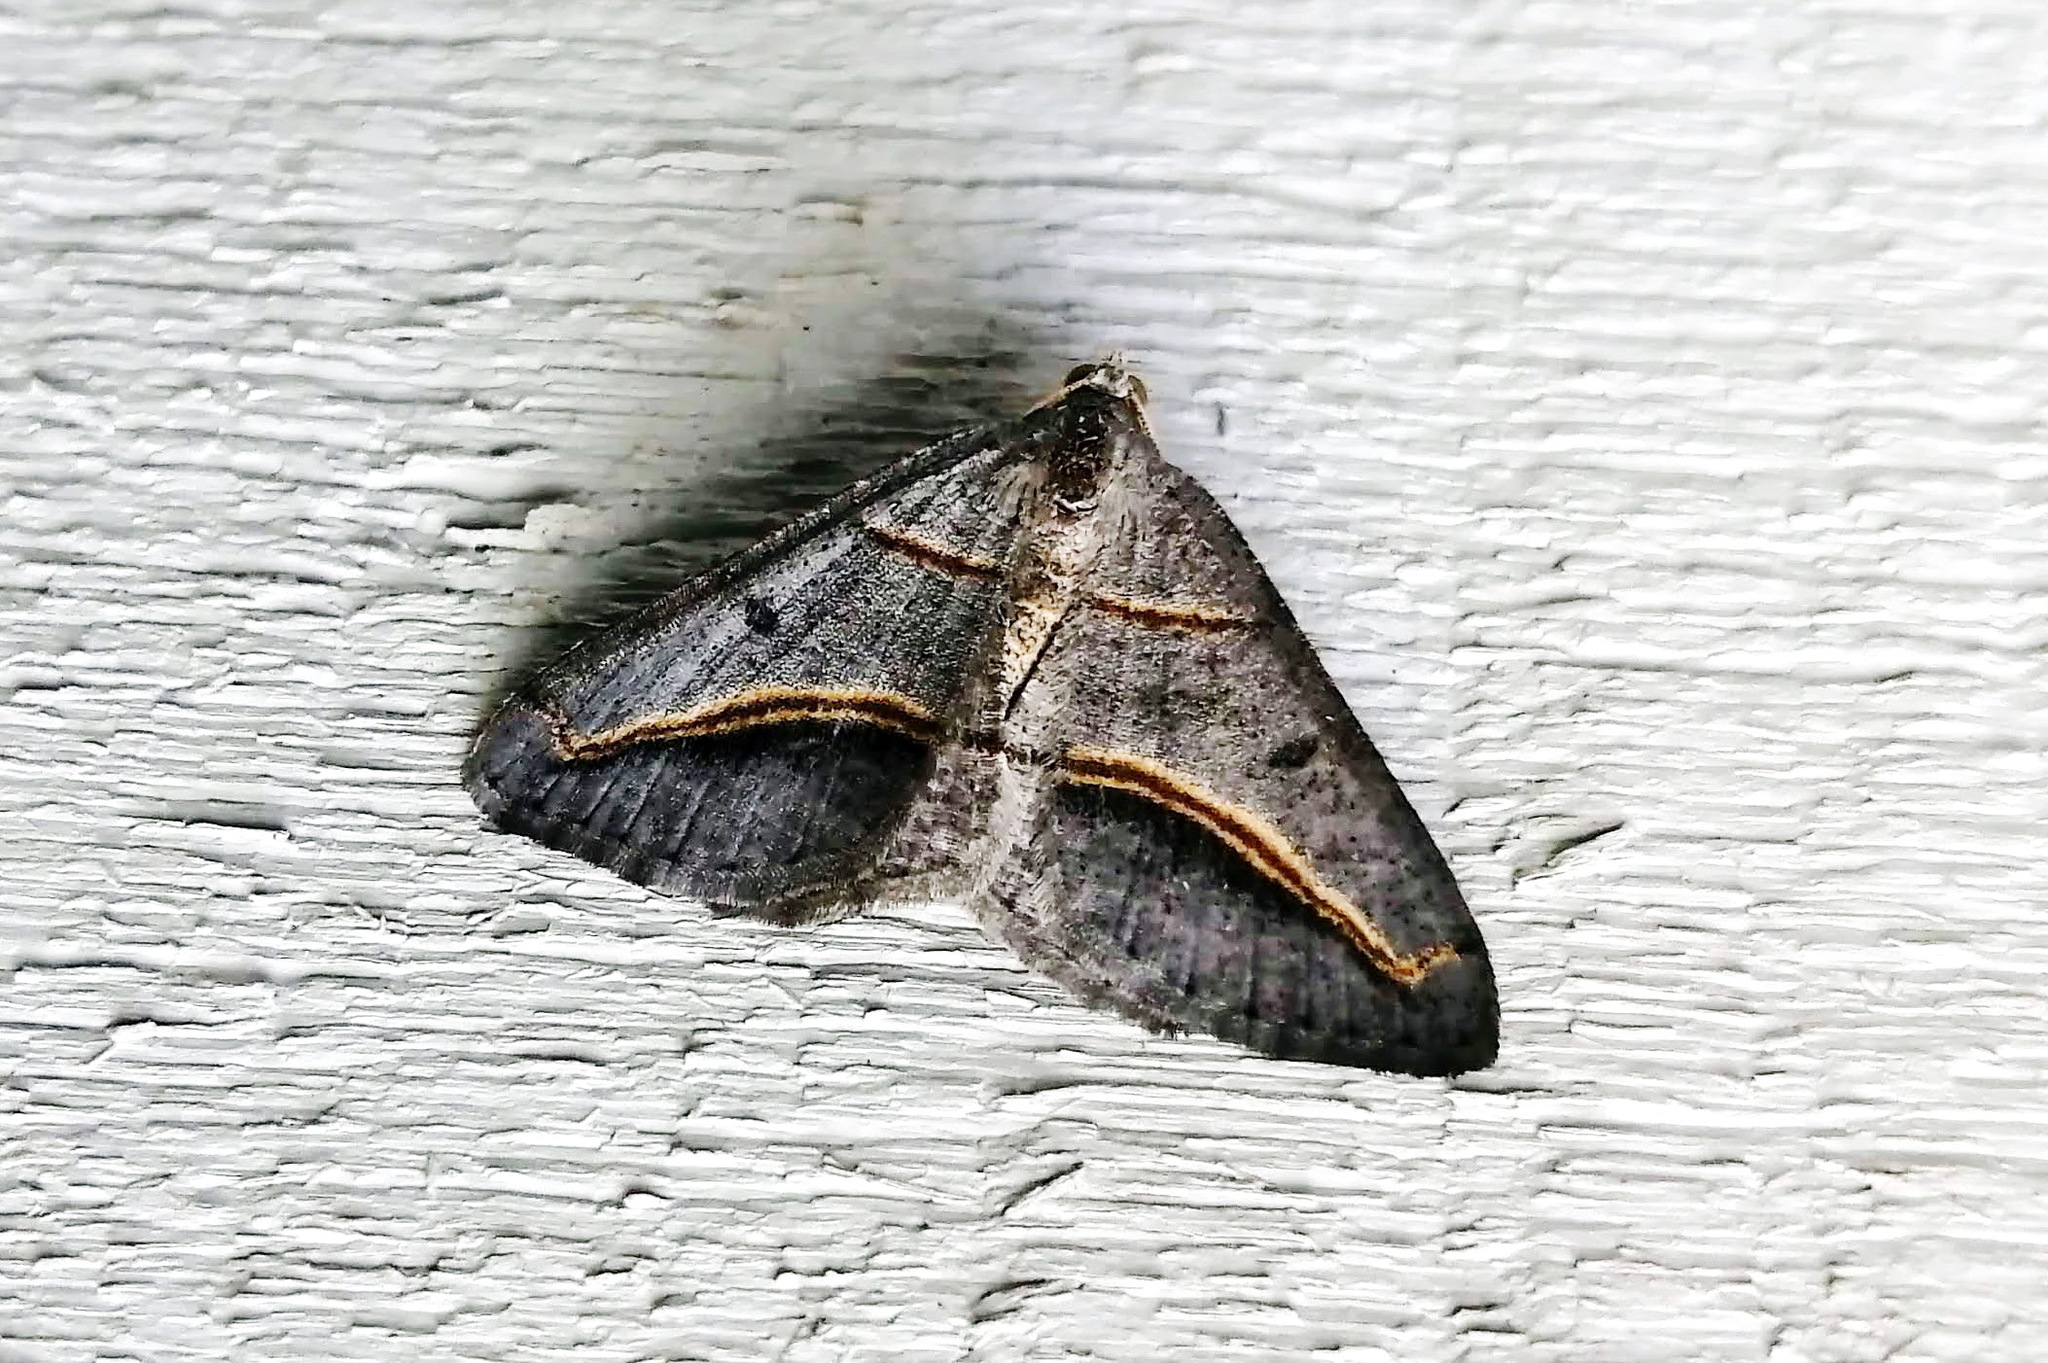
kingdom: Animalia
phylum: Arthropoda
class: Insecta
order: Lepidoptera
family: Geometridae
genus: Digrammia
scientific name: Digrammia mellistrigata
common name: Yellow-lined angle
